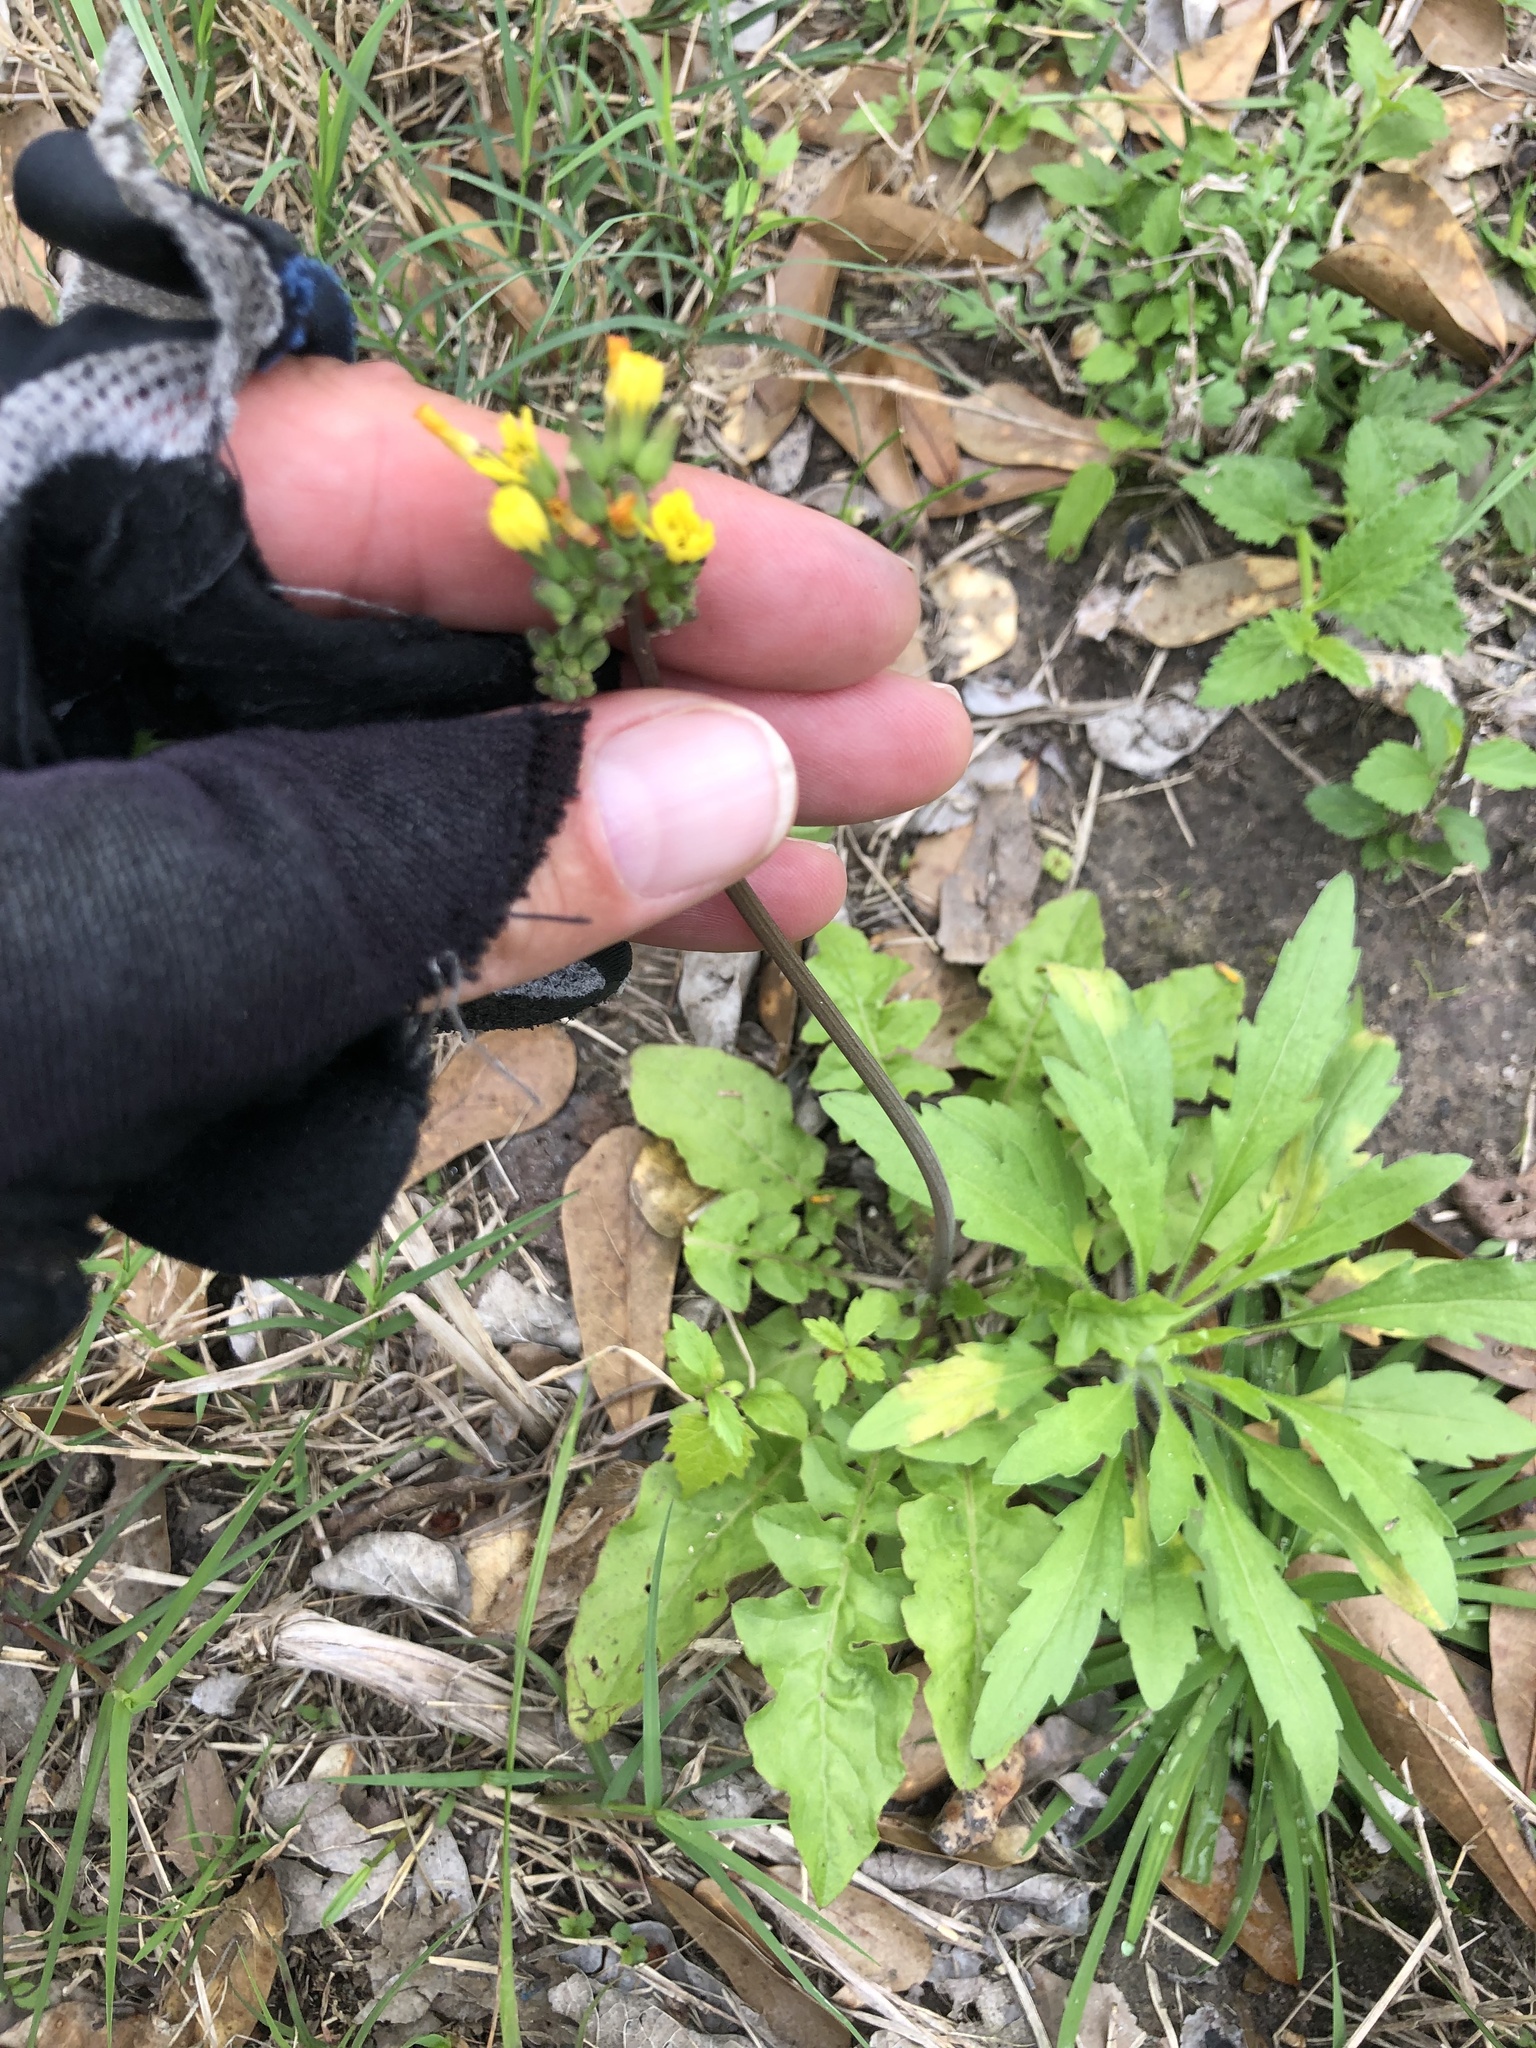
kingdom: Plantae
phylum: Tracheophyta
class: Magnoliopsida
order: Asterales
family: Asteraceae
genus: Youngia
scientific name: Youngia japonica
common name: Oriental false hawksbeard
